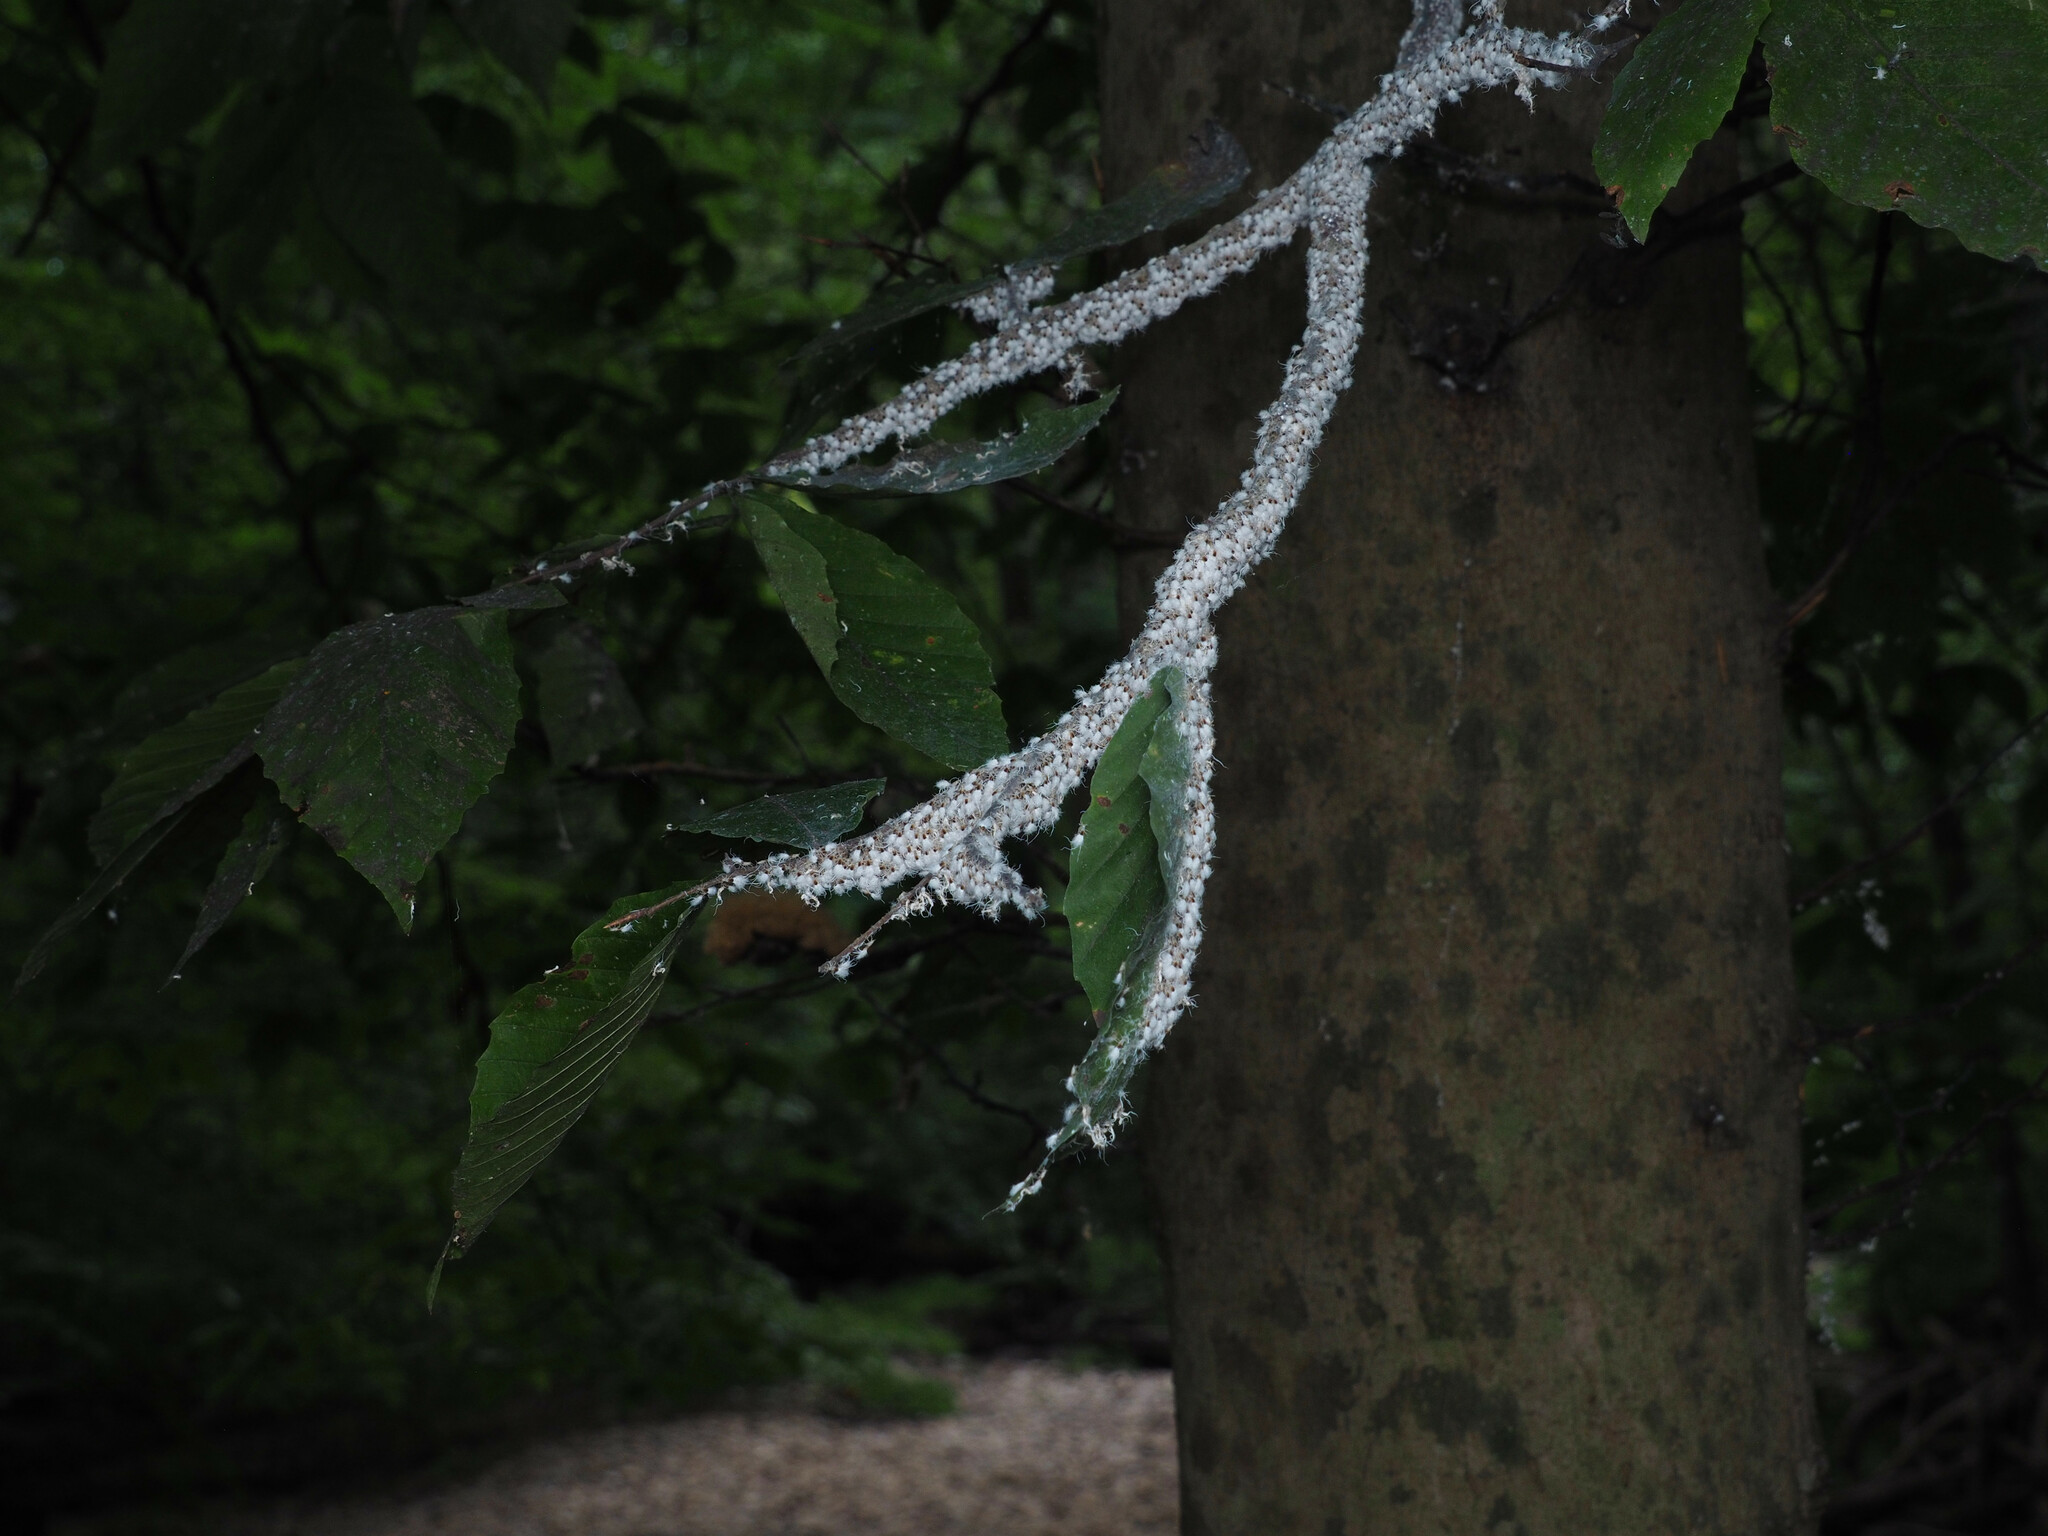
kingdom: Animalia
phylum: Arthropoda
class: Insecta
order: Hemiptera
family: Aphididae
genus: Grylloprociphilus
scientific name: Grylloprociphilus imbricator
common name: Beech blight aphid
